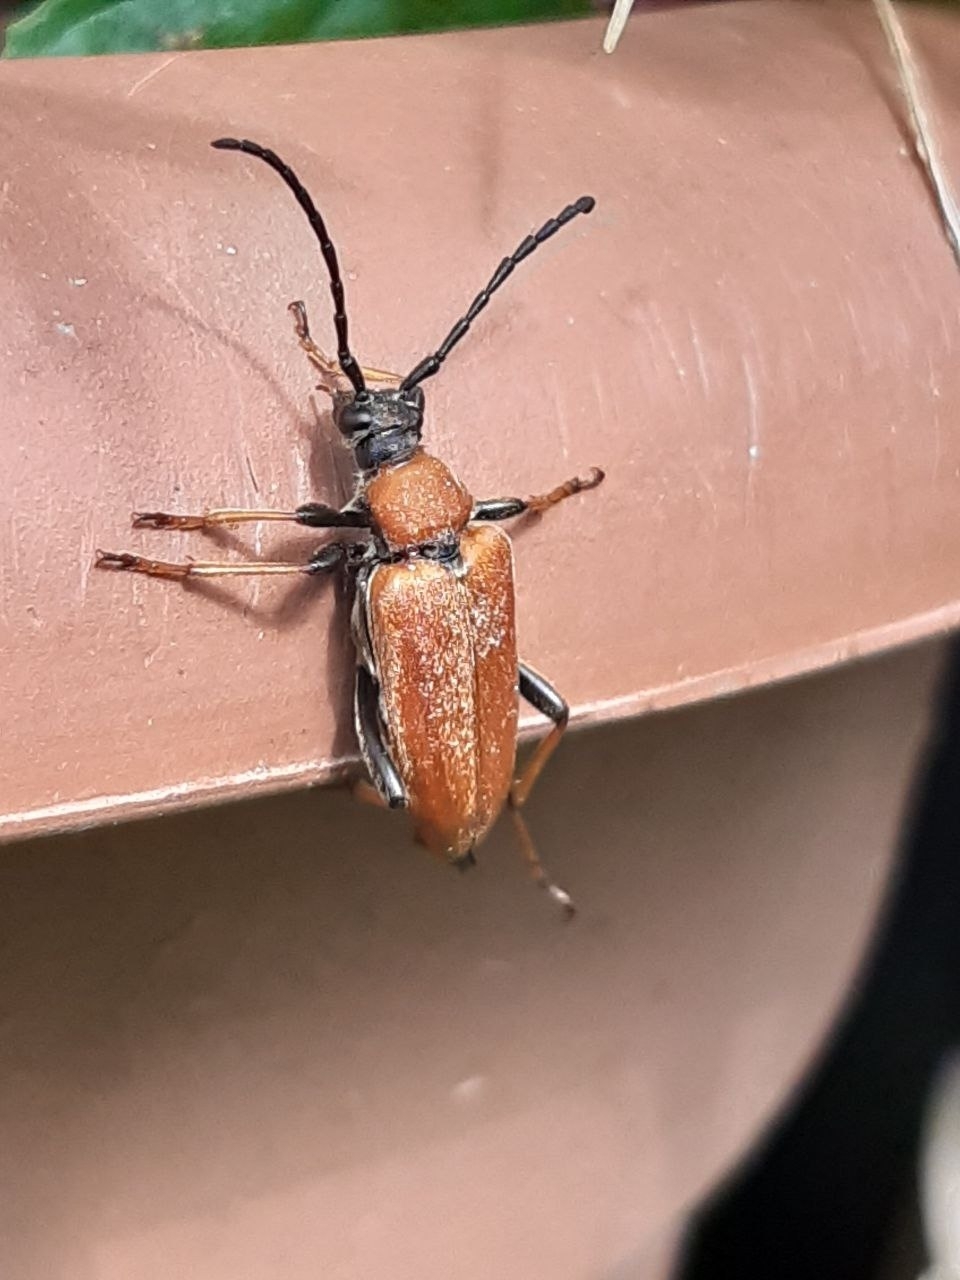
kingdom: Animalia
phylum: Arthropoda
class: Insecta
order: Coleoptera
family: Cerambycidae
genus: Stictoleptura
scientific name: Stictoleptura rubra
